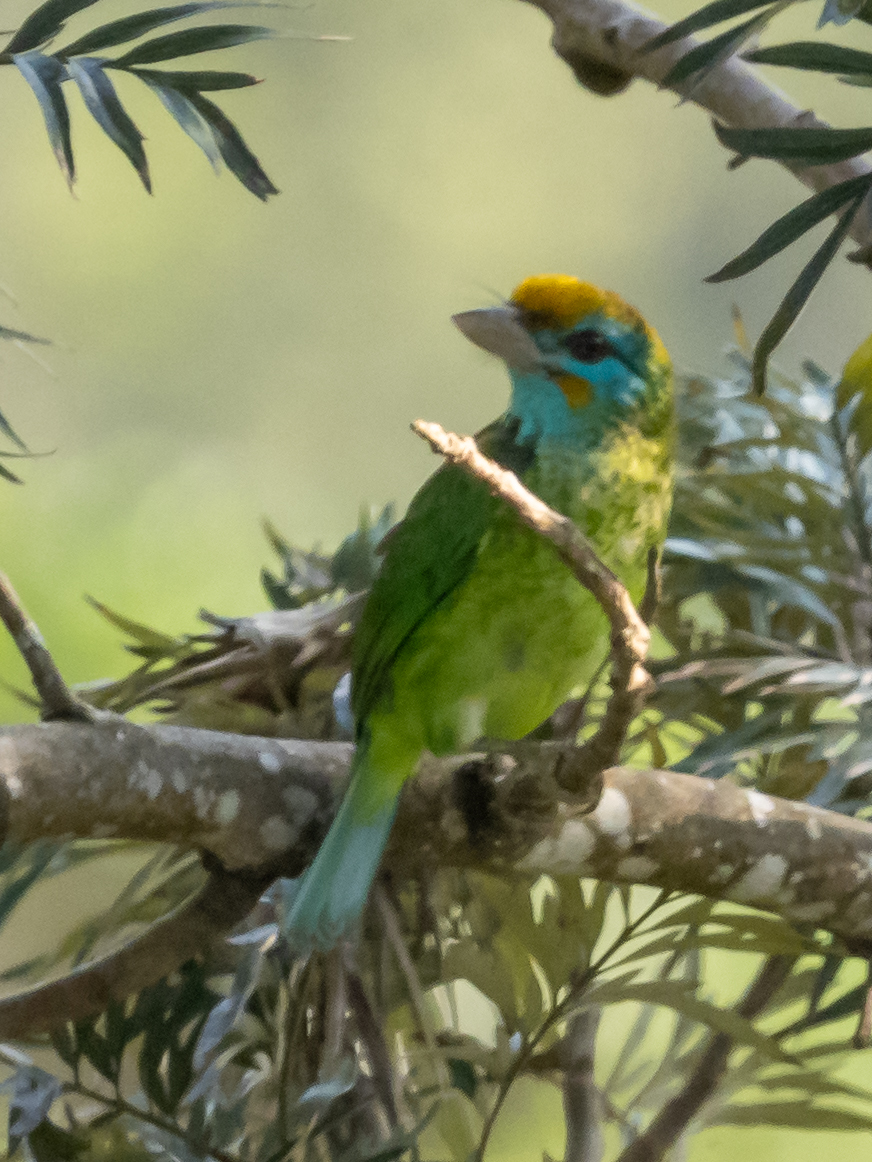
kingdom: Animalia
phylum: Chordata
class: Aves
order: Piciformes
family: Megalaimidae
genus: Psilopogon
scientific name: Psilopogon flavifrons
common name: Yellow-fronted barbet
